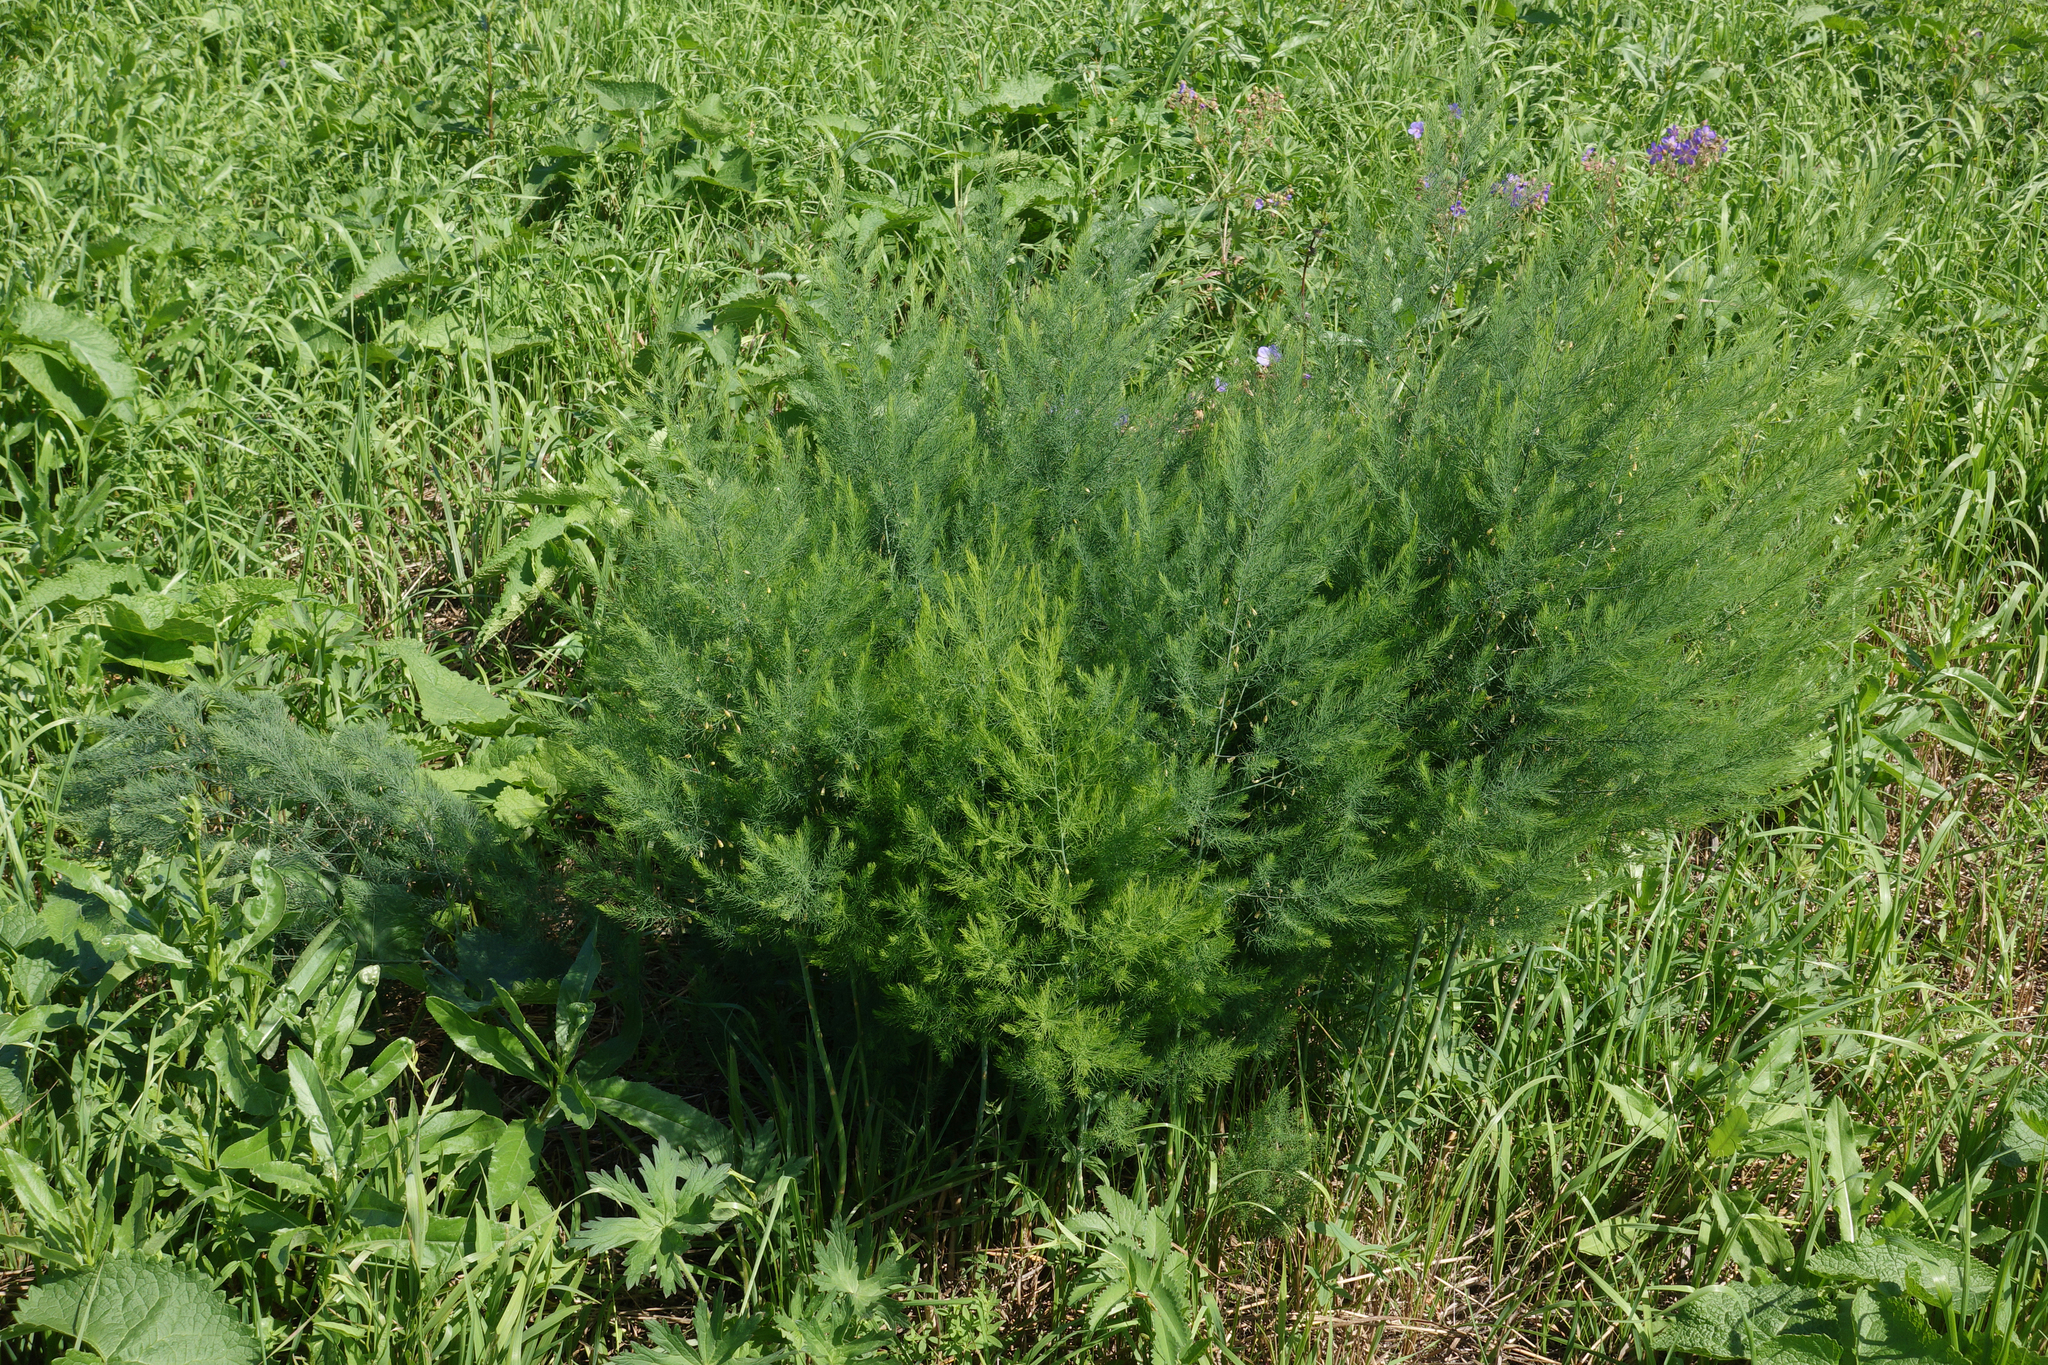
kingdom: Plantae
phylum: Tracheophyta
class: Liliopsida
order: Asparagales
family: Asparagaceae
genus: Asparagus
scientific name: Asparagus officinalis
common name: Garden asparagus
